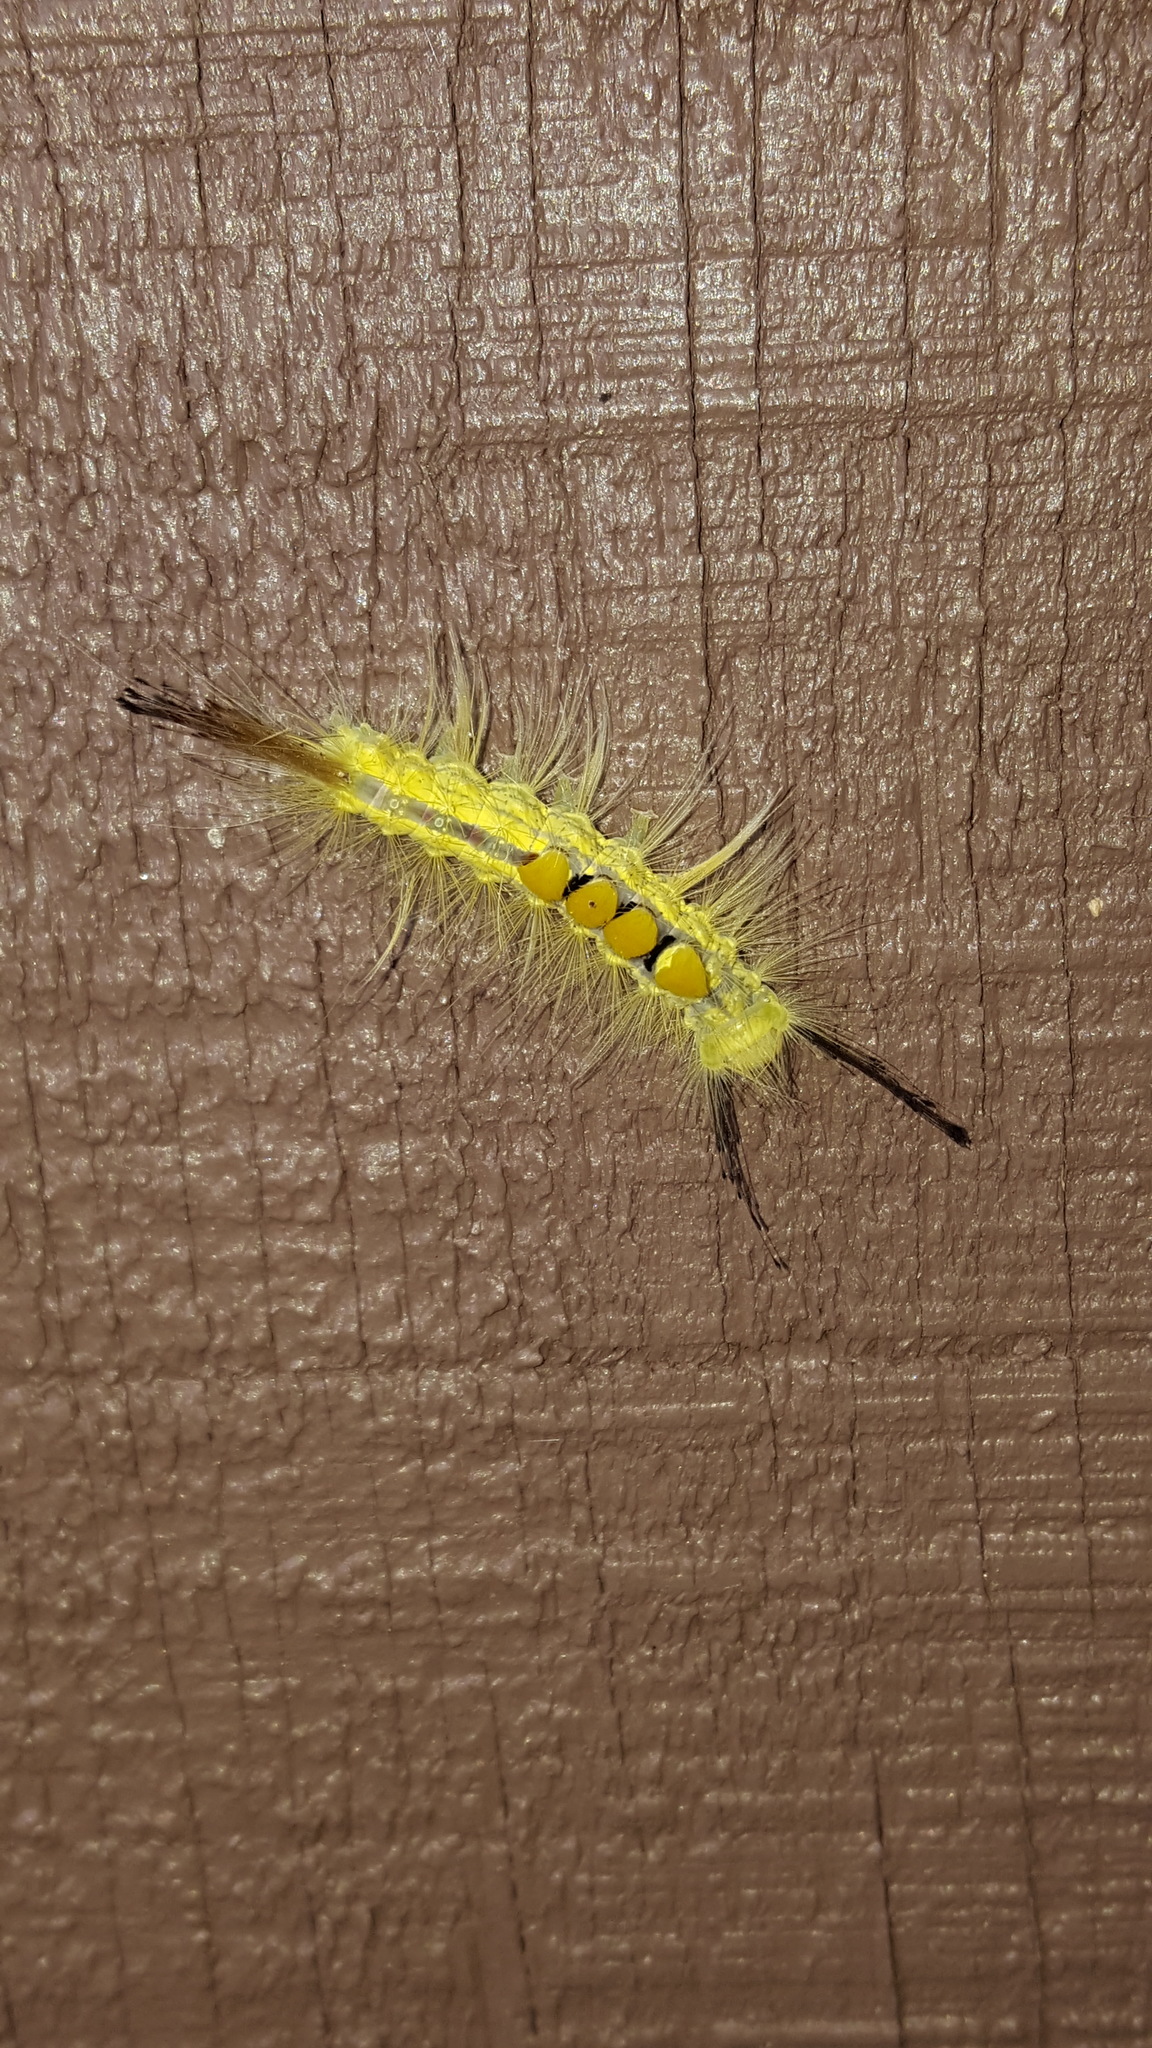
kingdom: Animalia
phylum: Arthropoda
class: Insecta
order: Lepidoptera
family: Erebidae
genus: Orgyia
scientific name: Orgyia definita
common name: Definite tussock moth
